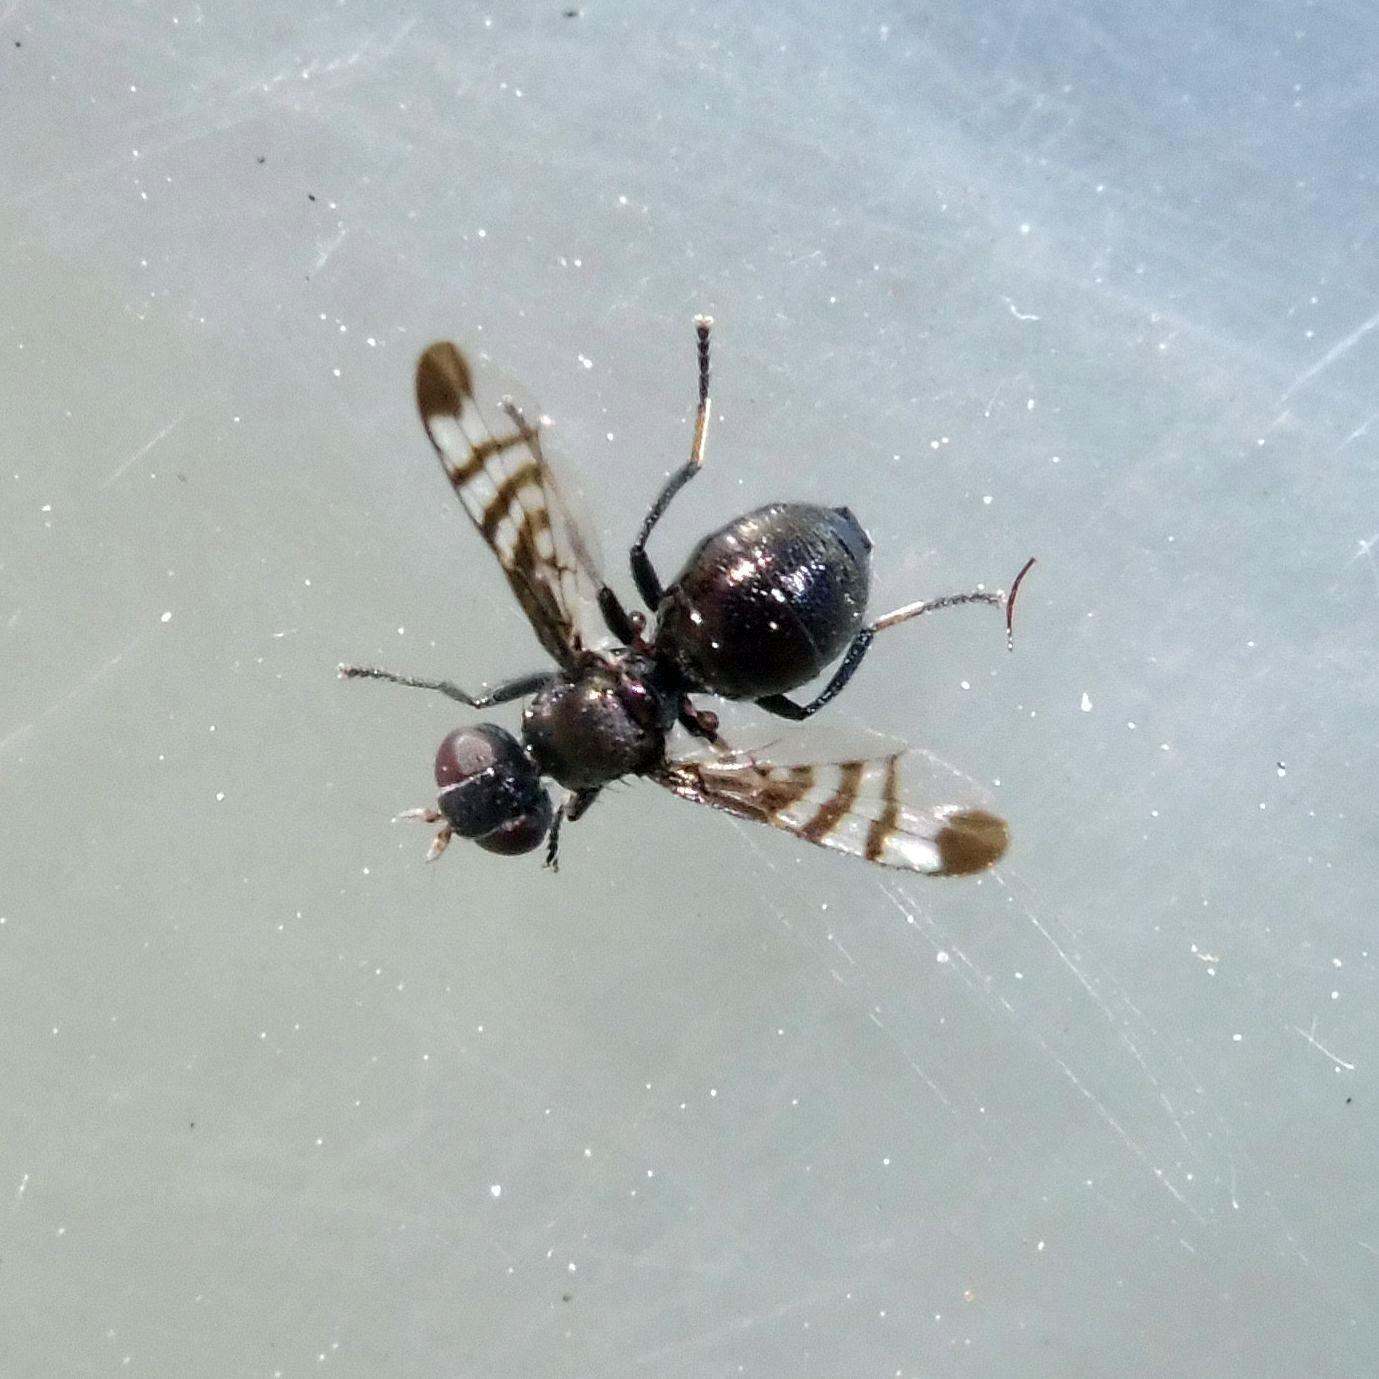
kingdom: Animalia
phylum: Arthropoda
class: Insecta
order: Diptera
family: Platystomatidae
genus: Rivellia
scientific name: Rivellia syngenesiae
